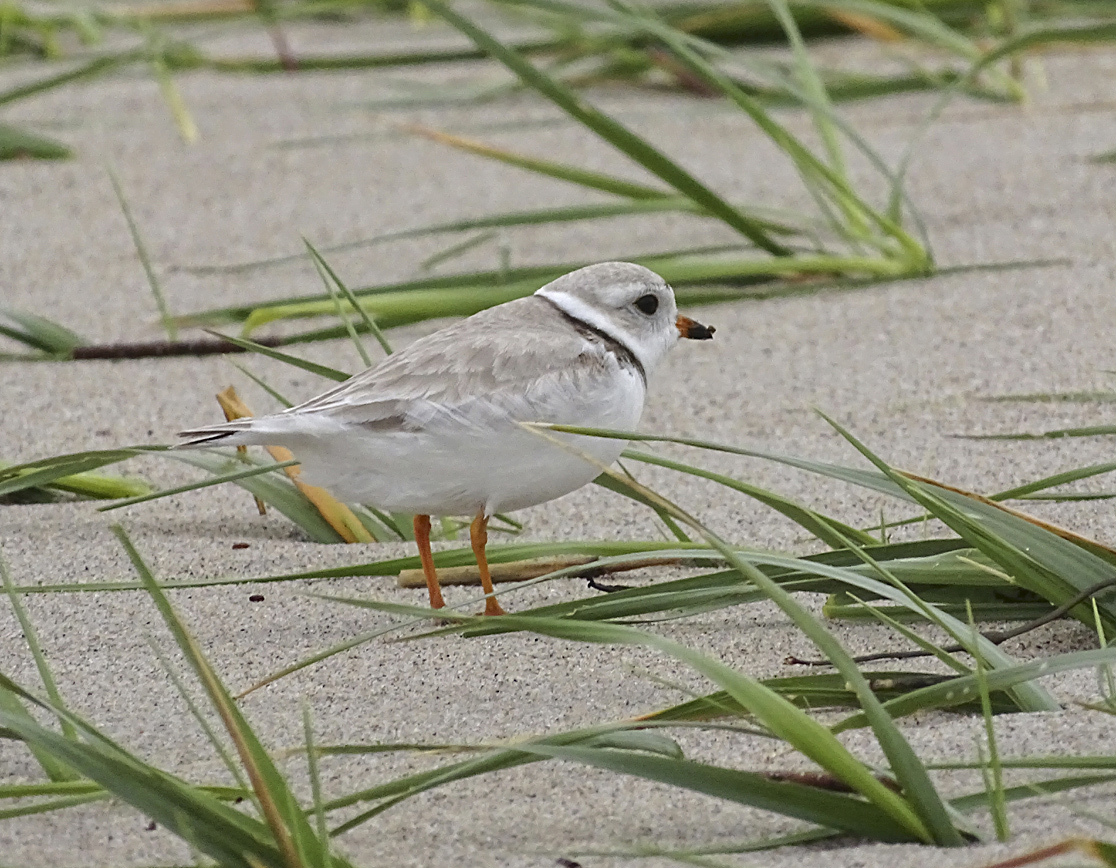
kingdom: Animalia
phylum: Chordata
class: Aves
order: Charadriiformes
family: Charadriidae
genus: Charadrius
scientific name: Charadrius melodus
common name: Piping plover
